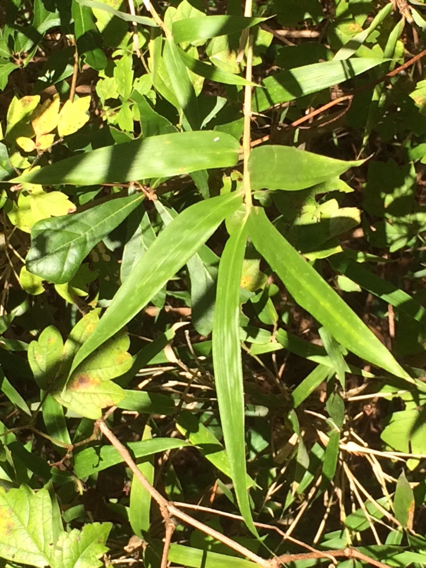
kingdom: Plantae
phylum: Tracheophyta
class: Liliopsida
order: Poales
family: Poaceae
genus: Arundinaria
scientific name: Arundinaria gigantea
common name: Giant cane
